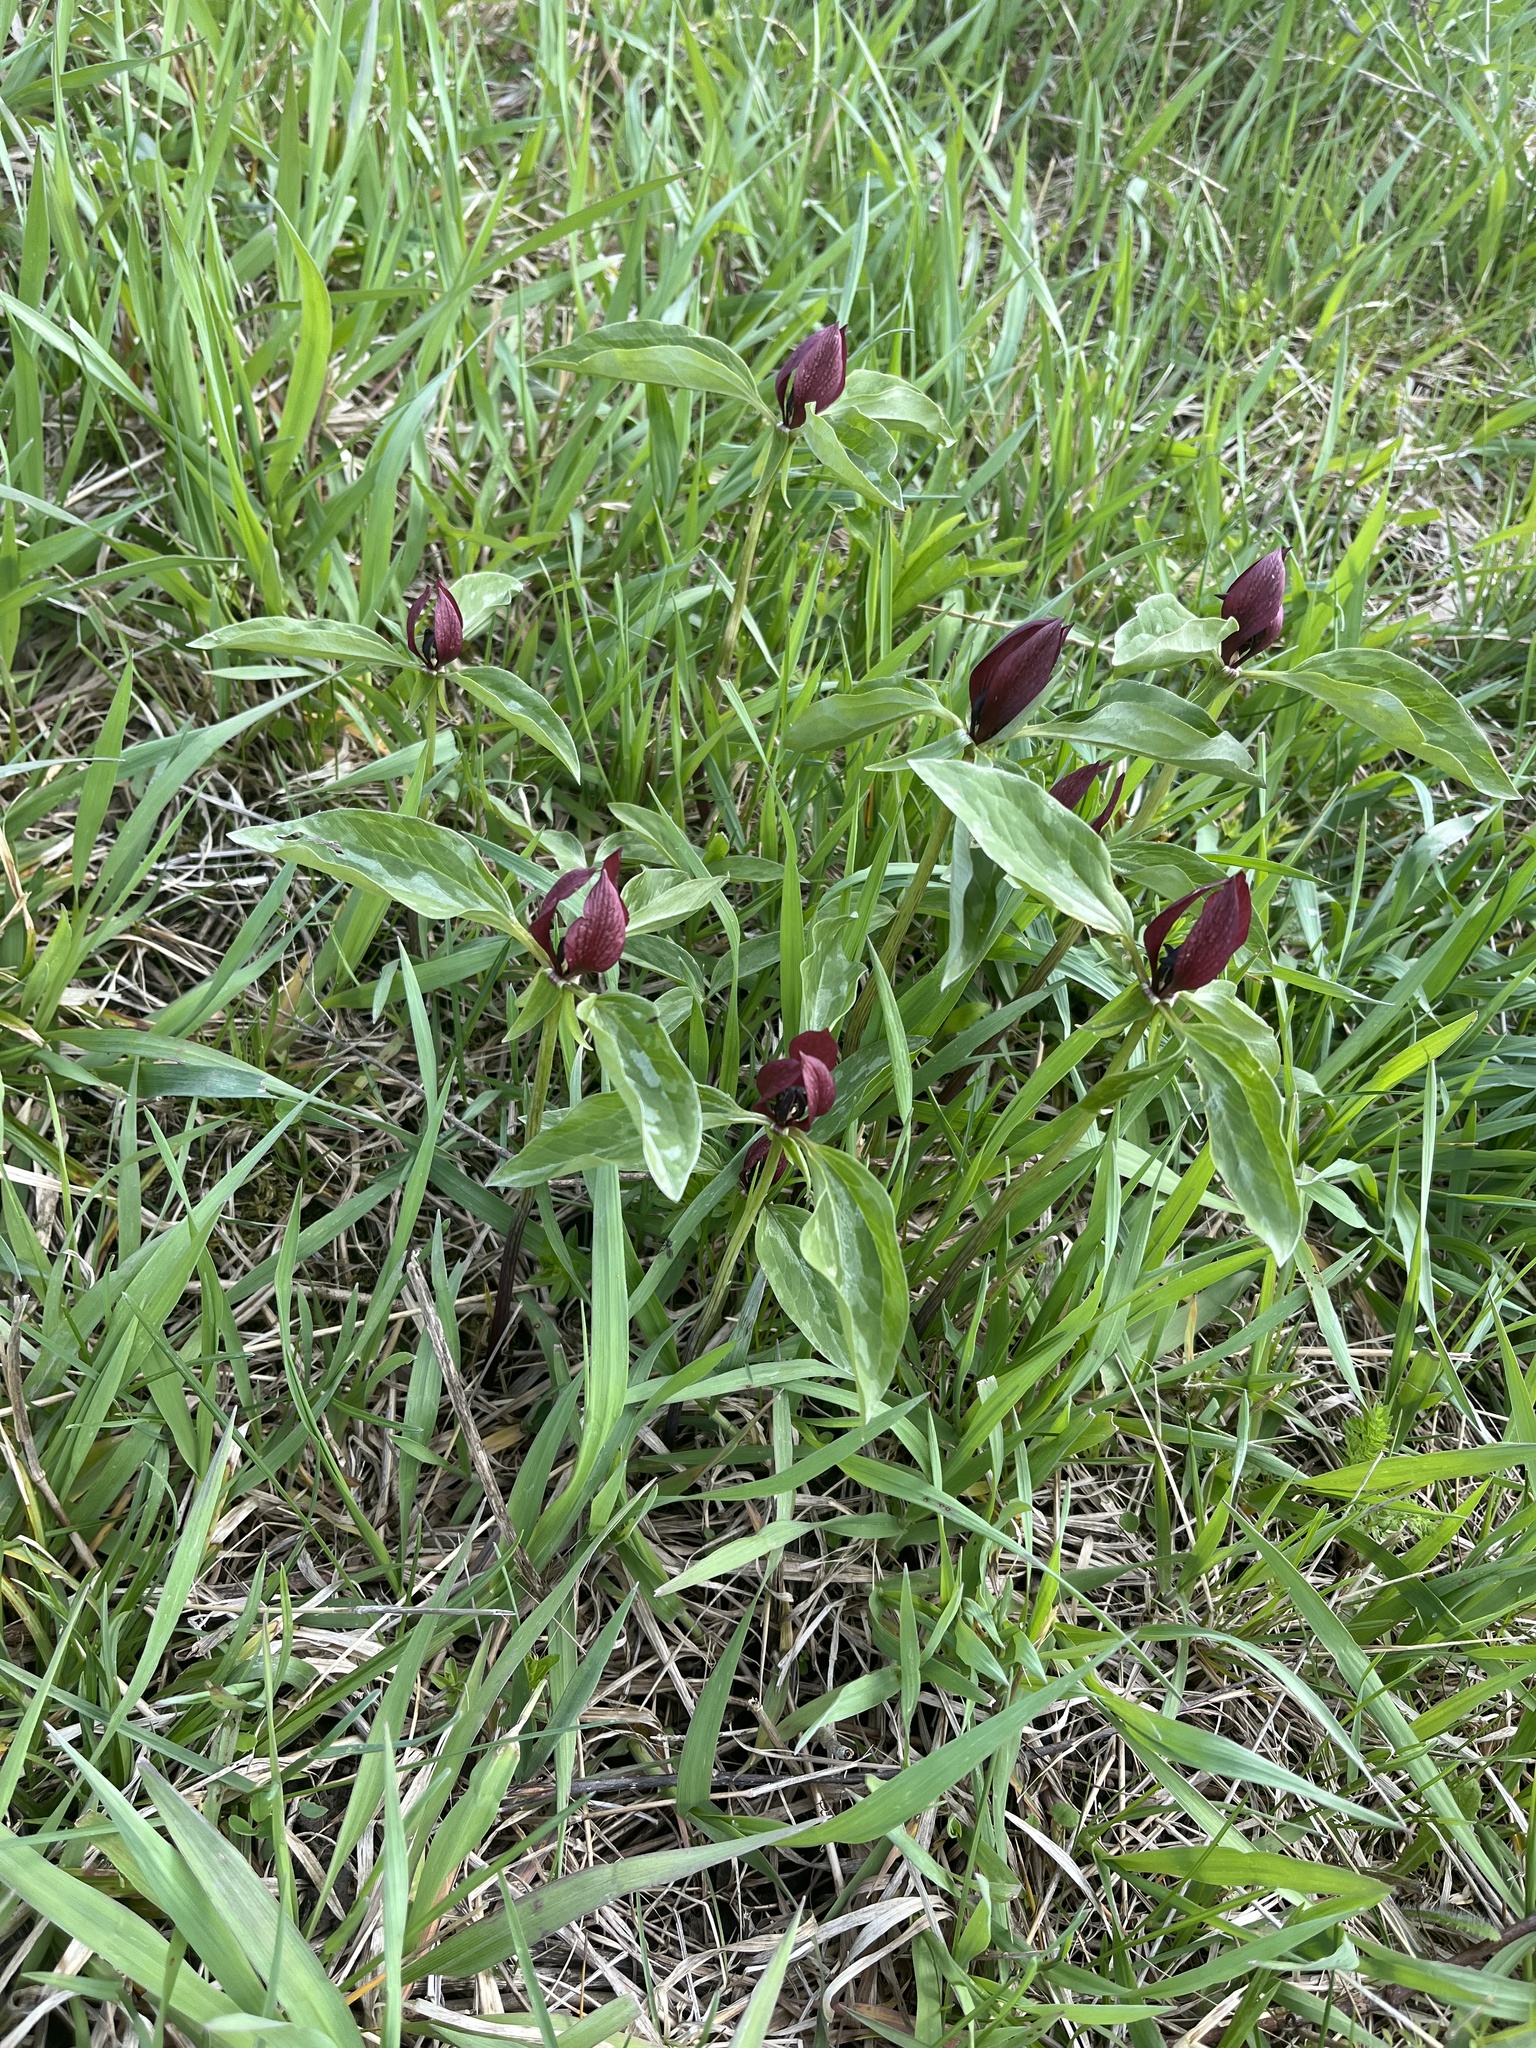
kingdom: Plantae
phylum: Tracheophyta
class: Liliopsida
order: Liliales
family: Melanthiaceae
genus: Trillium
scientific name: Trillium recurvatum
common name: Bloody butcher
